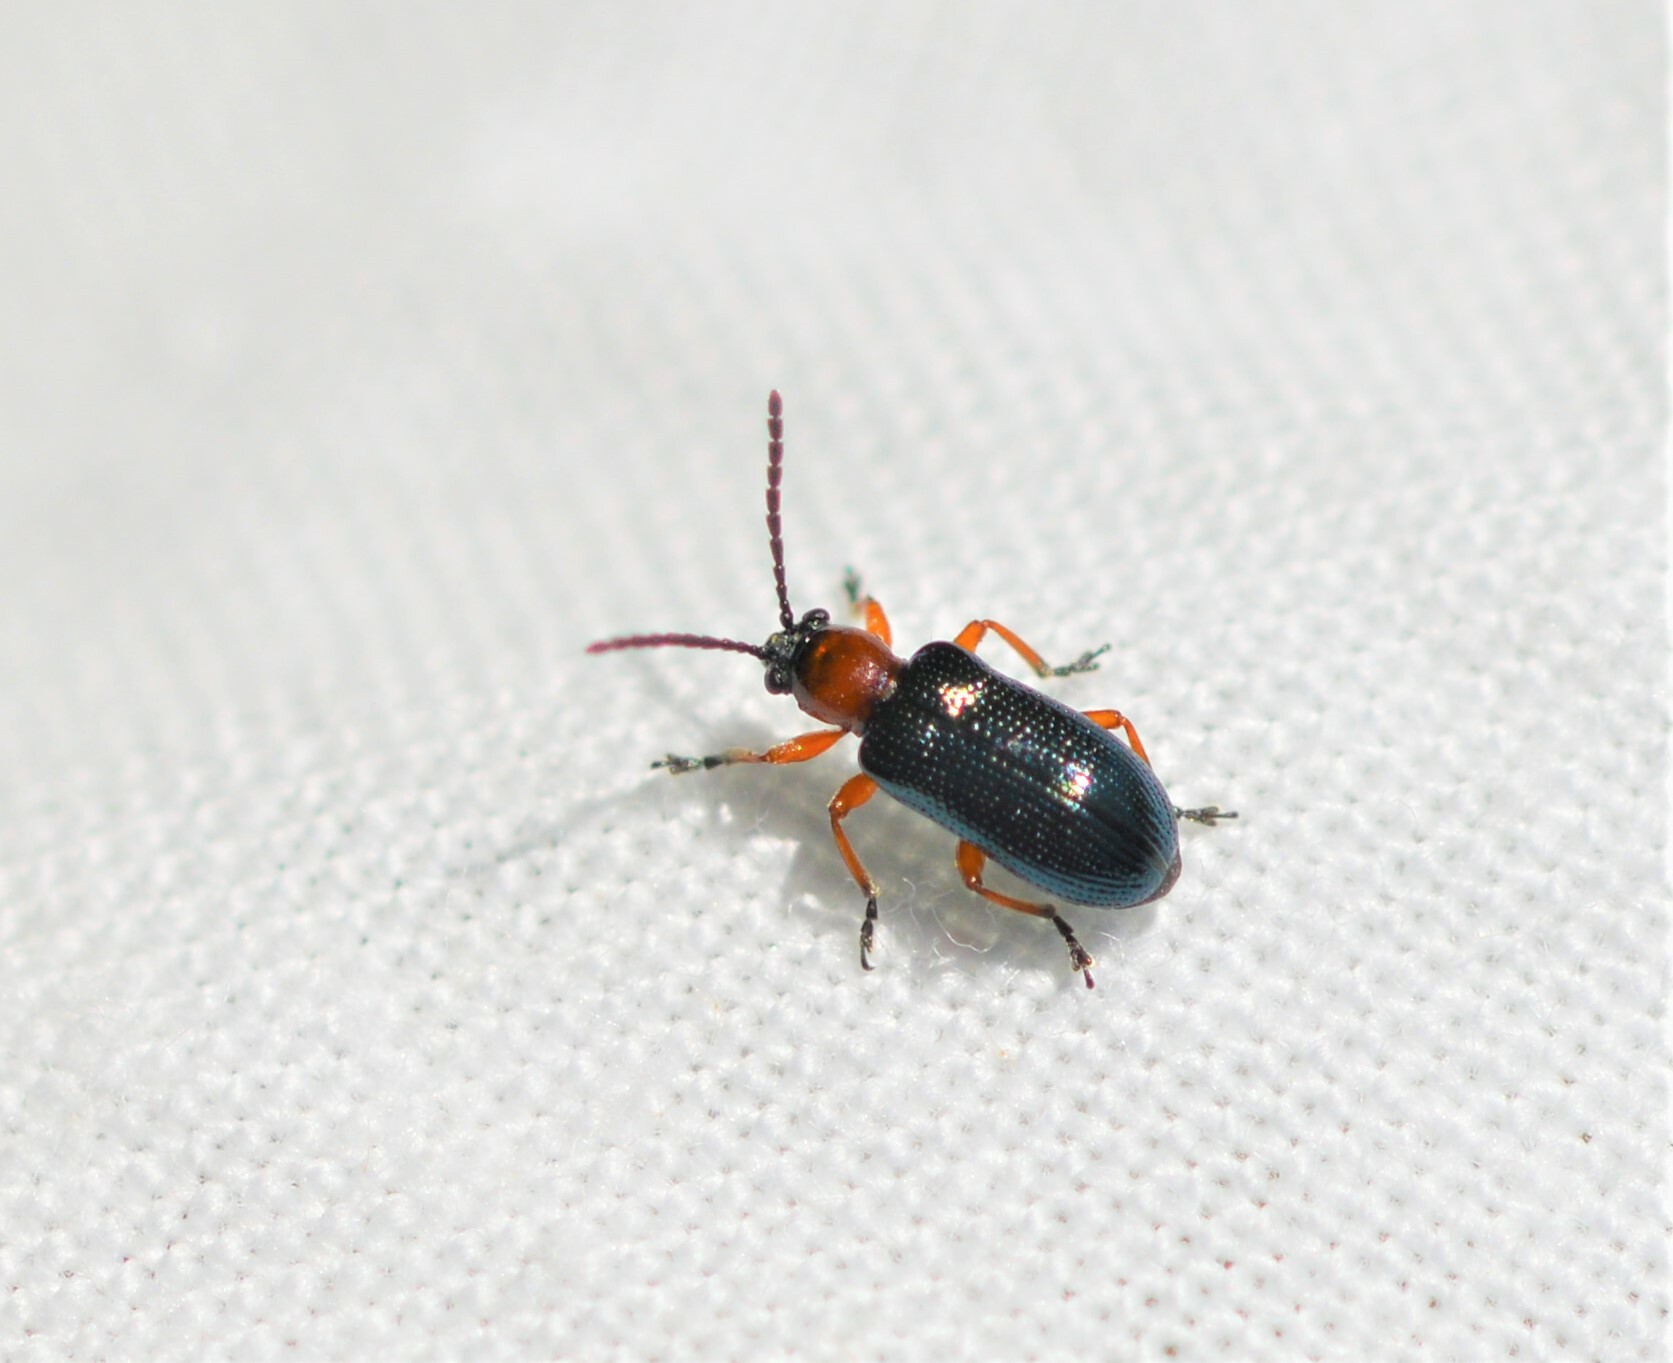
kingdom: Animalia
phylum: Arthropoda
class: Insecta
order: Coleoptera
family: Chrysomelidae
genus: Oulema
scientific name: Oulema
